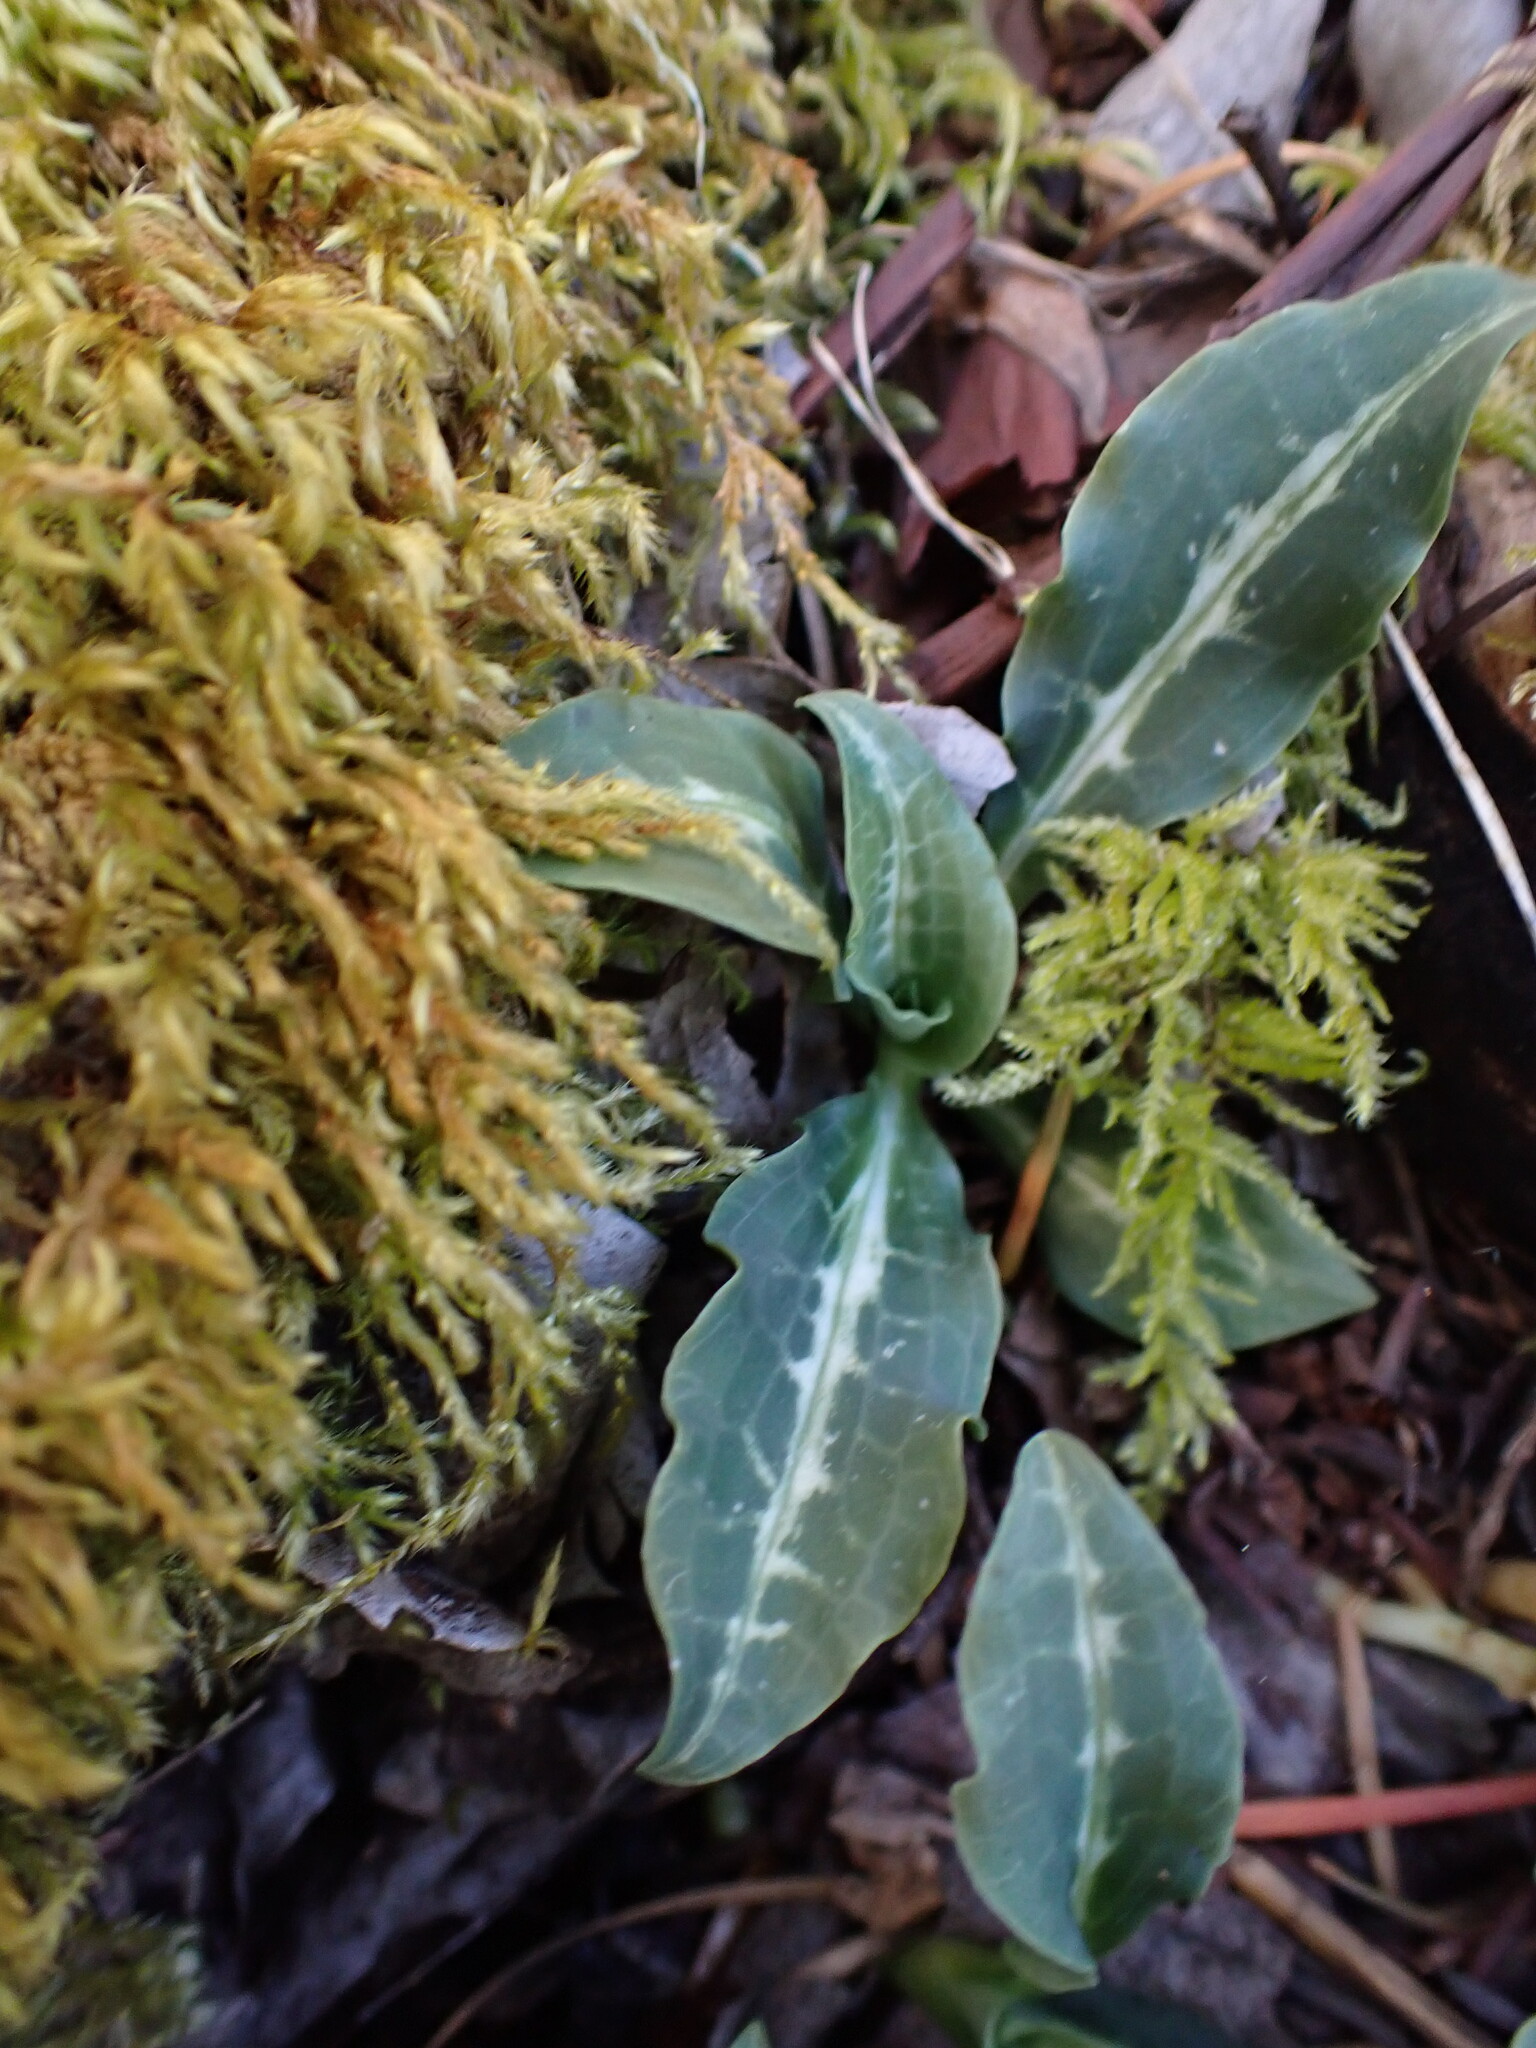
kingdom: Plantae
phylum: Tracheophyta
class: Liliopsida
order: Asparagales
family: Orchidaceae
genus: Goodyera
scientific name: Goodyera oblongifolia
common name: Giant rattlesnake-plantain
